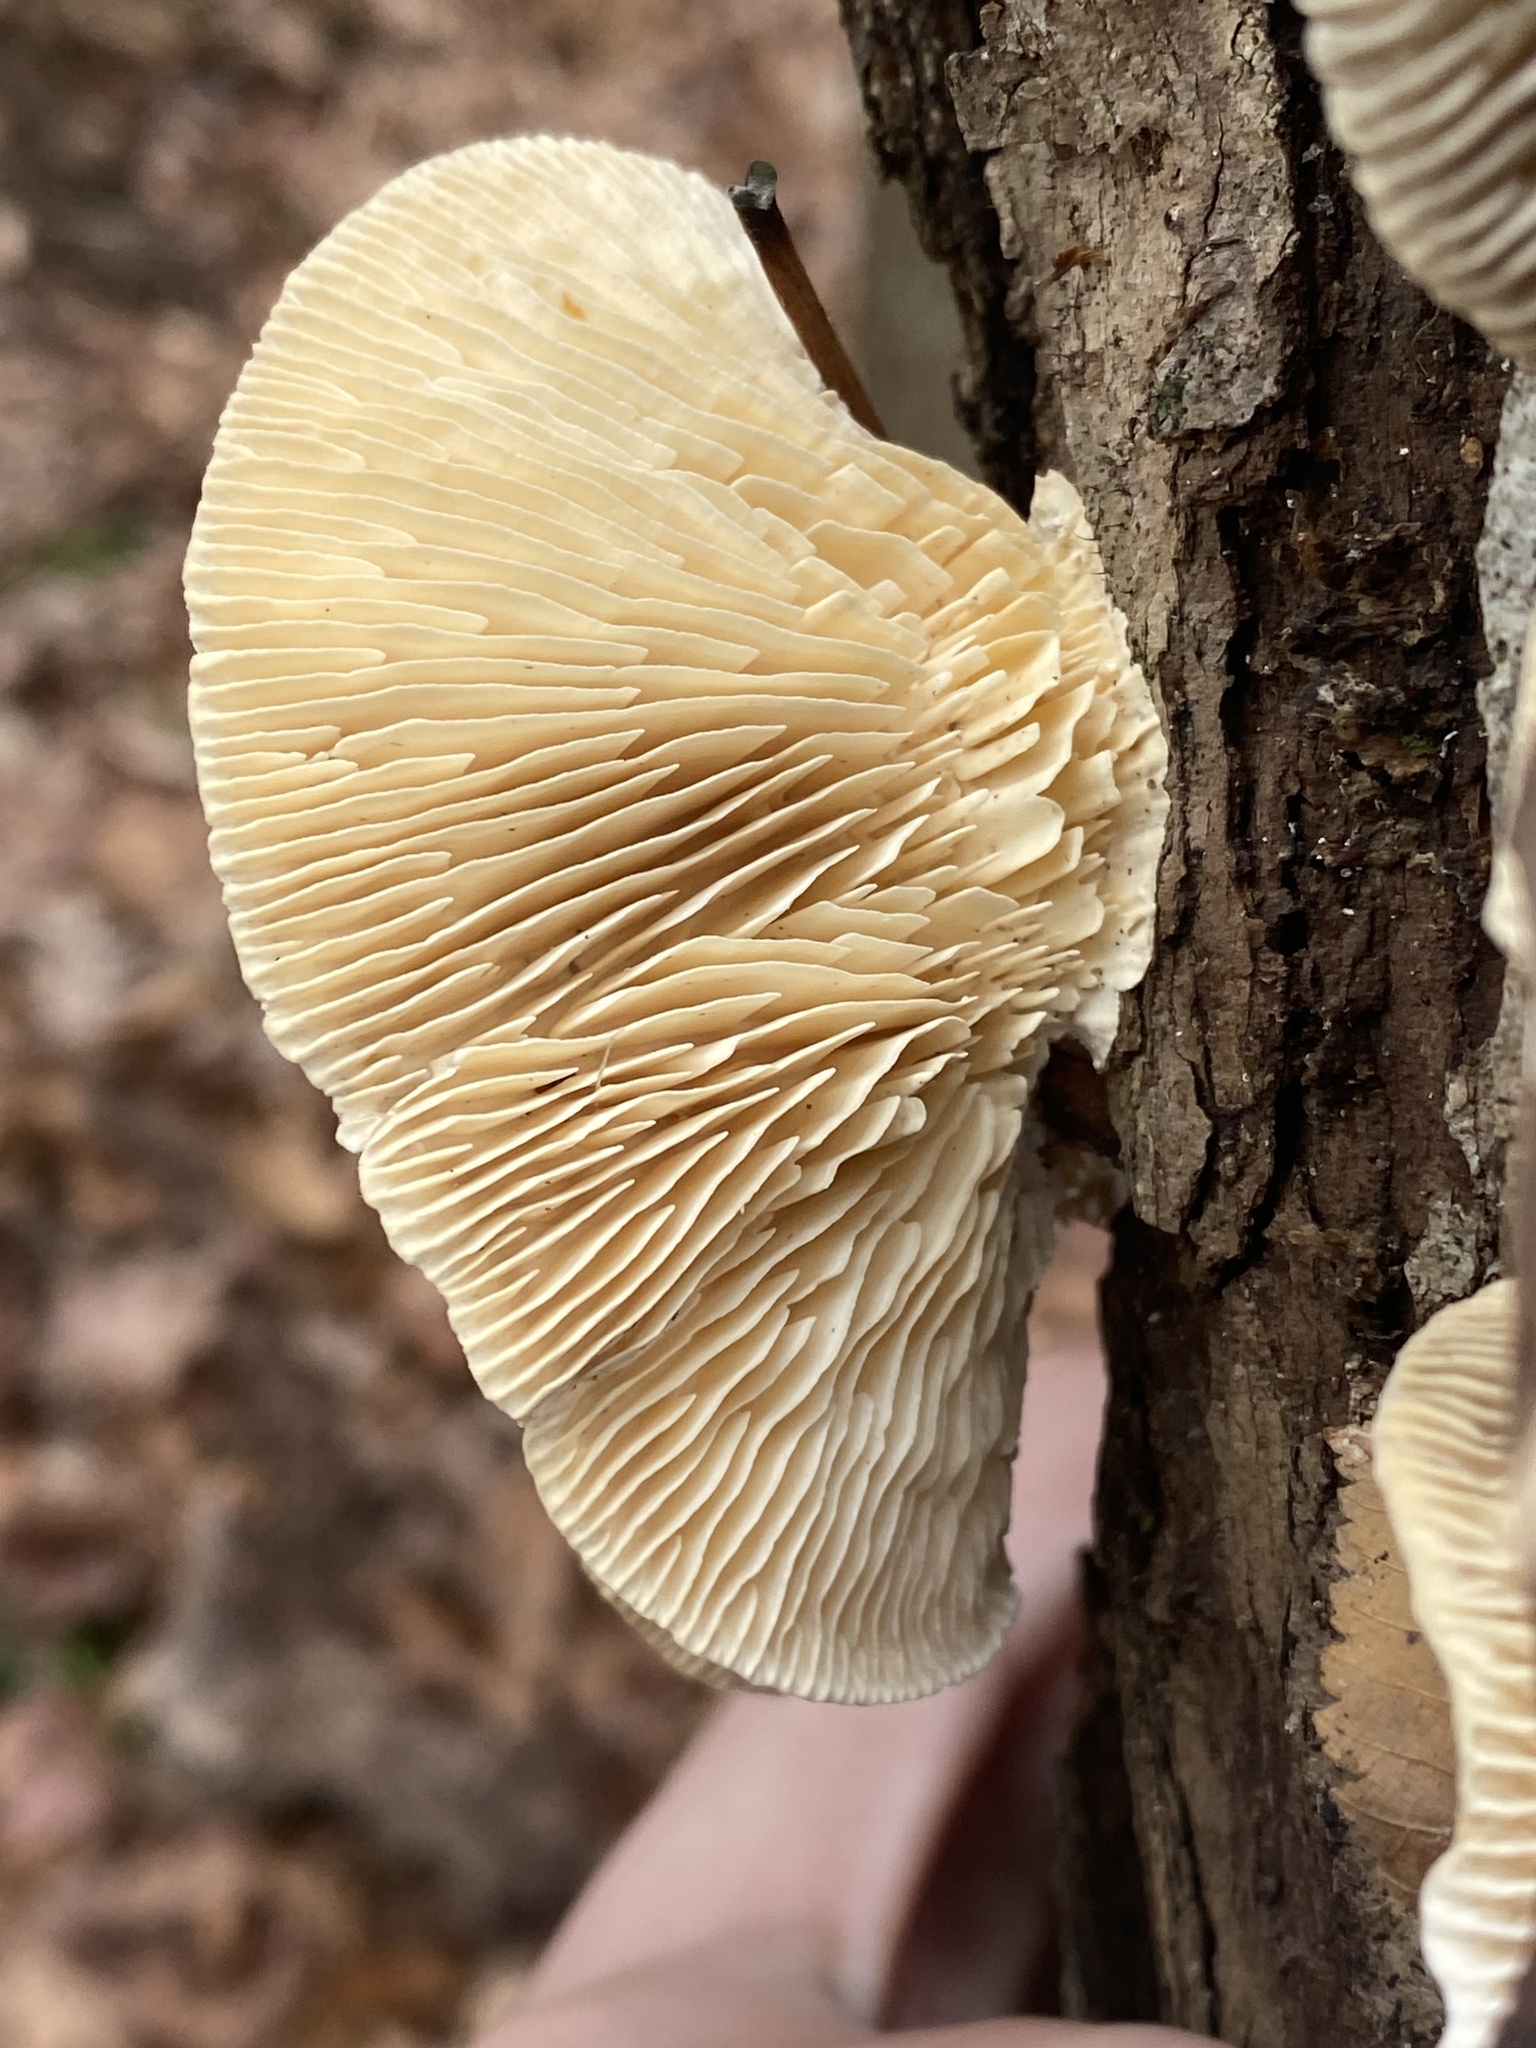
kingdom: Fungi
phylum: Basidiomycota
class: Agaricomycetes
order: Polyporales
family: Polyporaceae
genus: Lenzites
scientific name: Lenzites betulinus
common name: Birch mazegill
